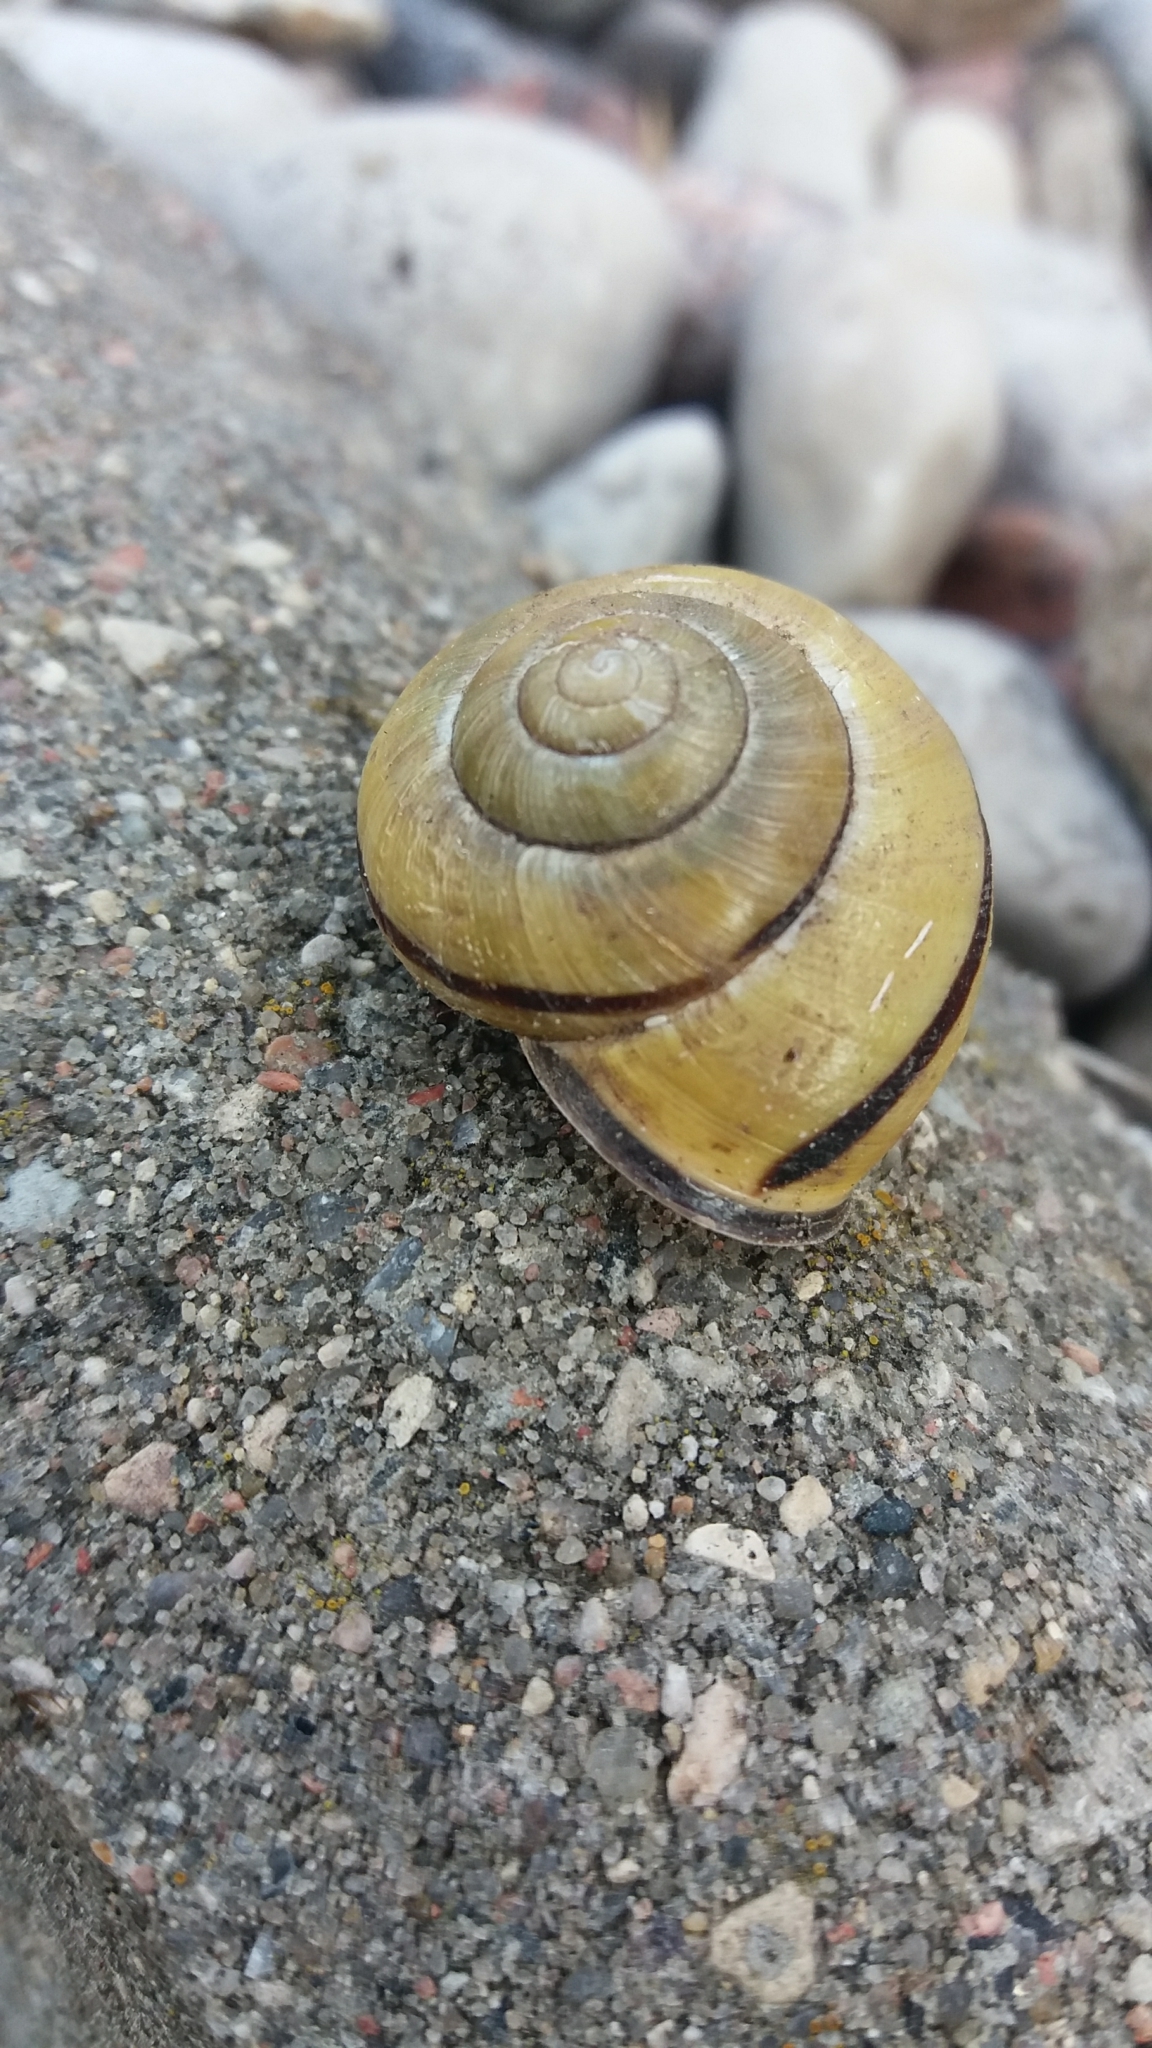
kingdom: Animalia
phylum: Mollusca
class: Gastropoda
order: Stylommatophora
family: Helicidae
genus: Cepaea
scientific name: Cepaea nemoralis
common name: Grovesnail
